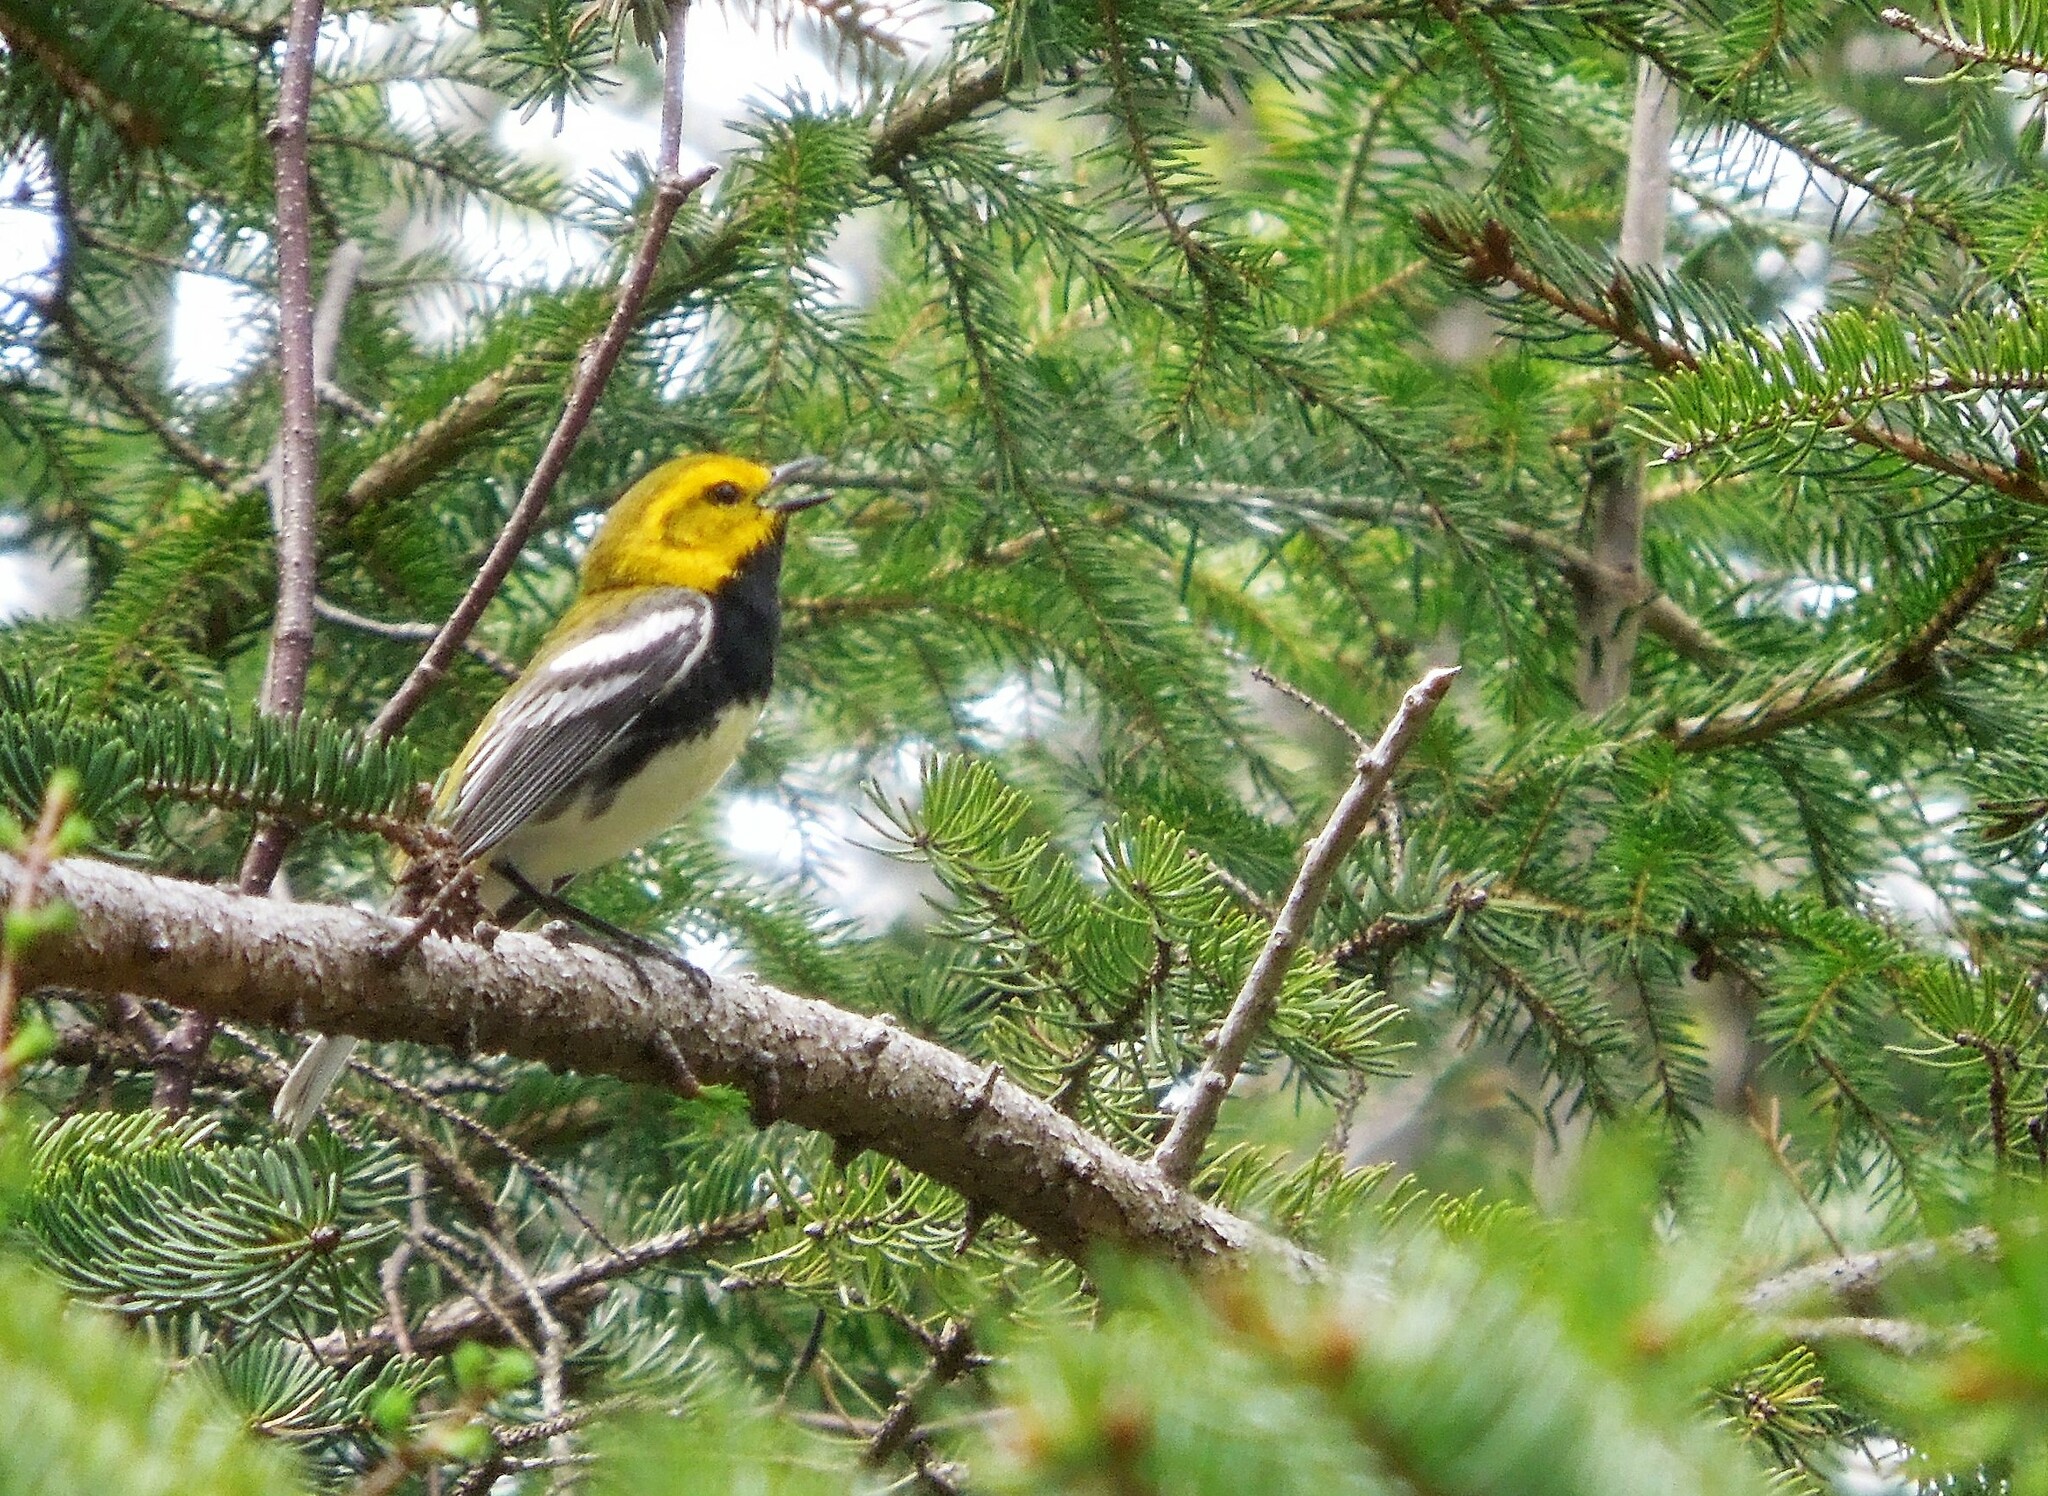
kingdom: Animalia
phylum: Chordata
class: Aves
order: Passeriformes
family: Parulidae
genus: Setophaga
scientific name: Setophaga virens
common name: Black-throated green warbler
